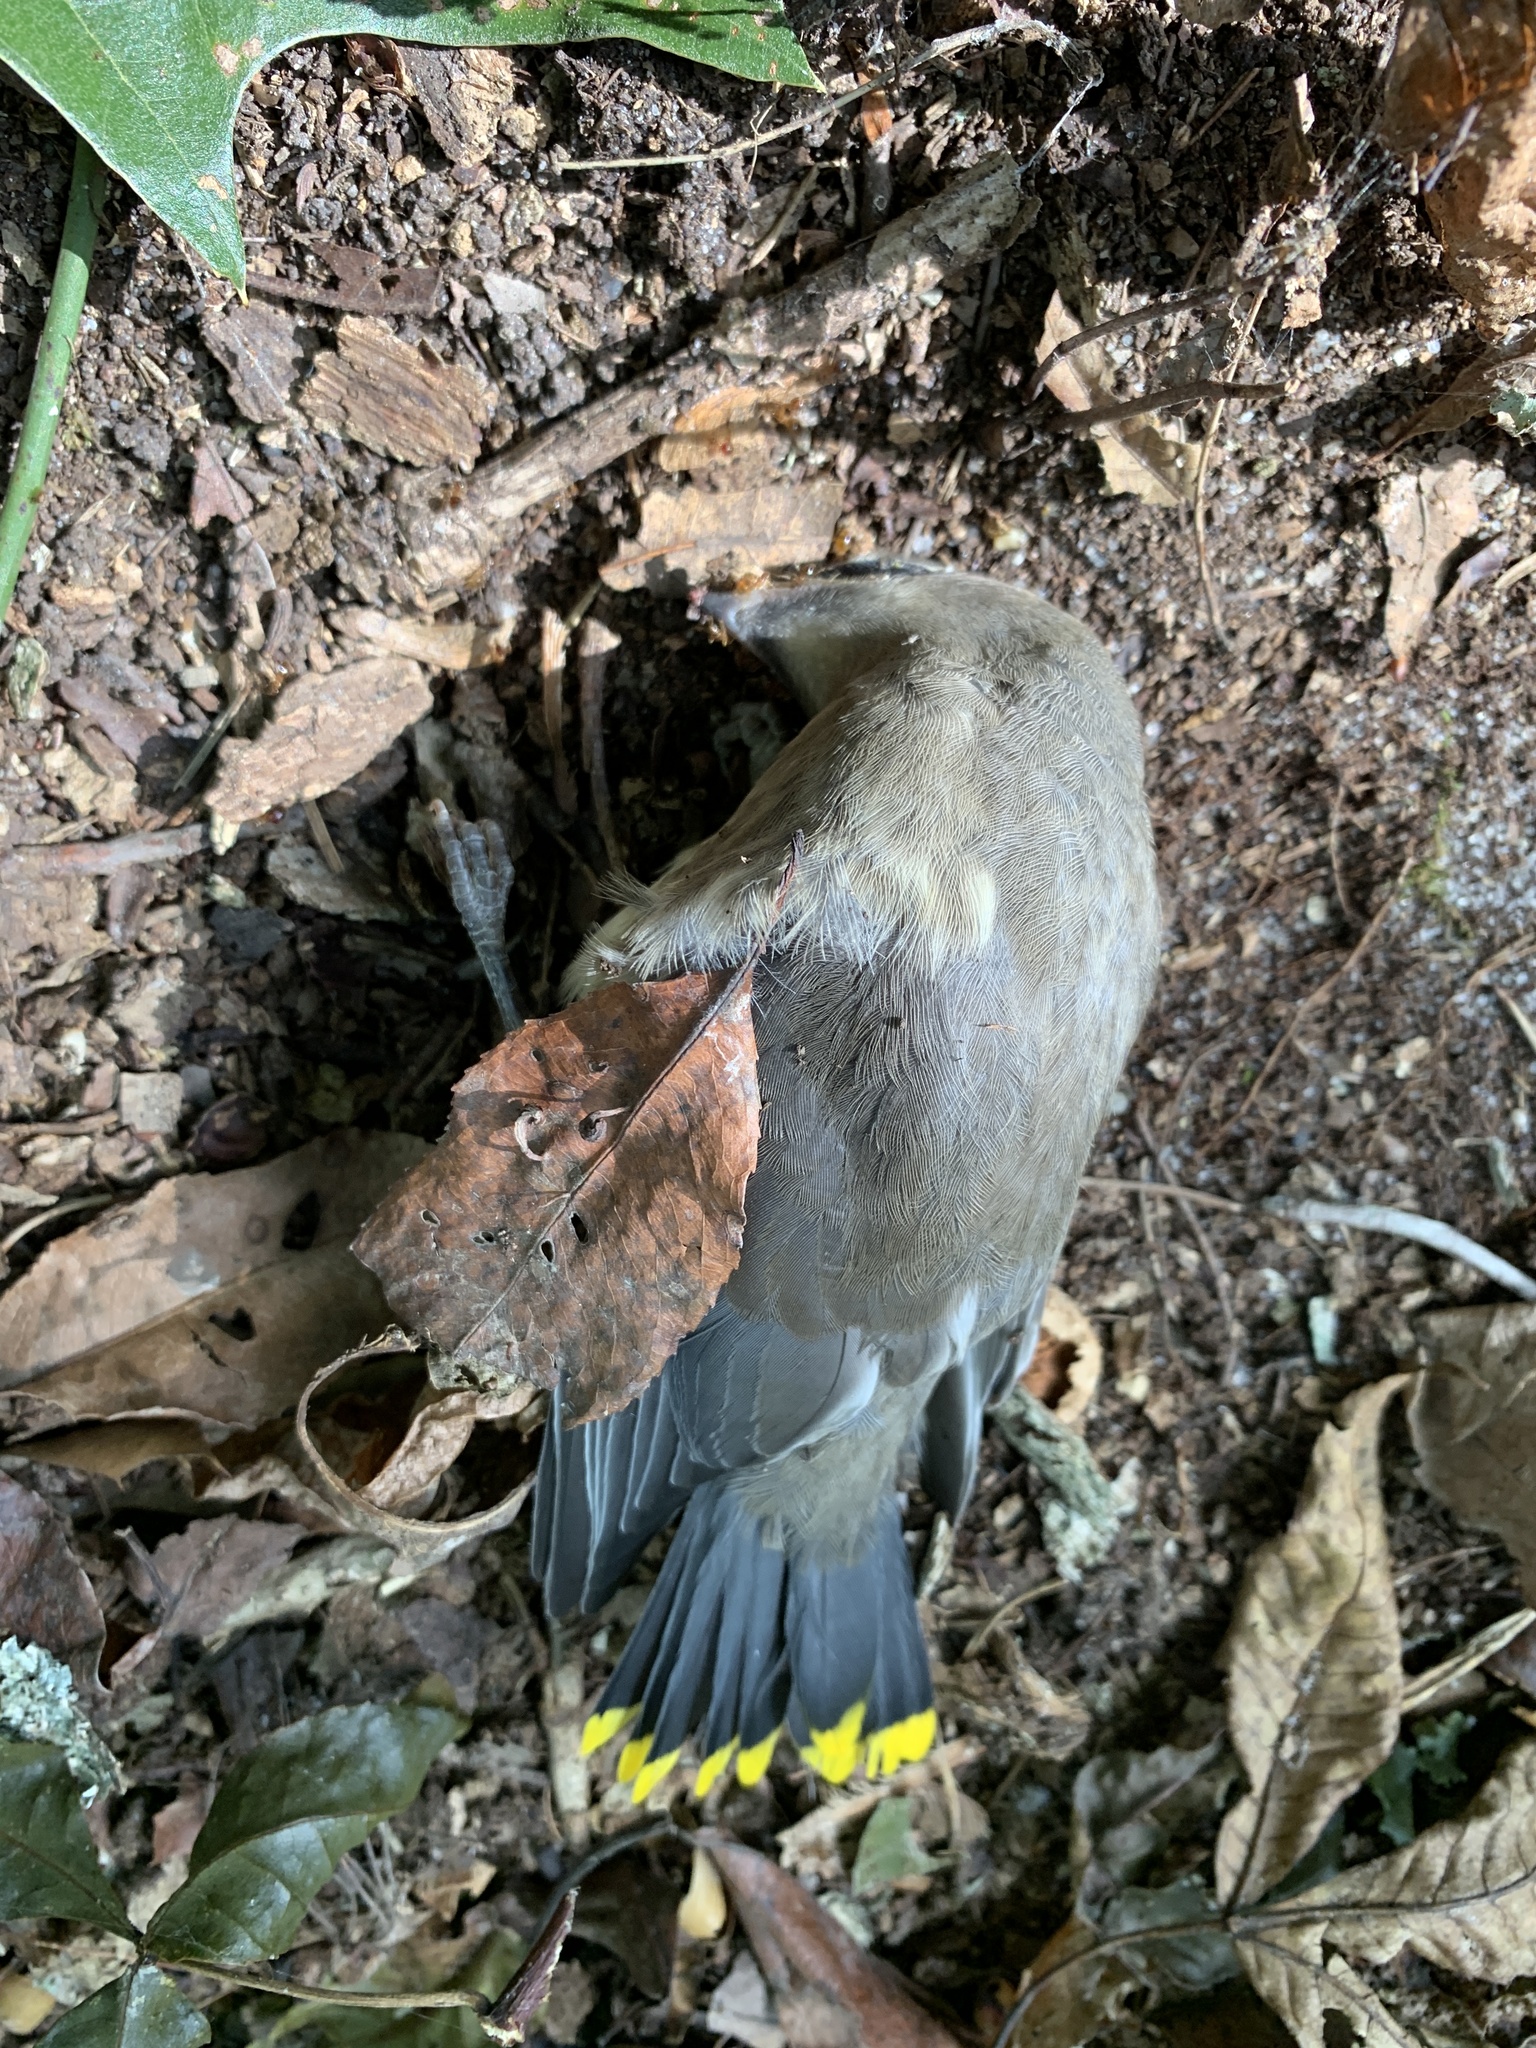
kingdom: Animalia
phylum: Chordata
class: Aves
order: Passeriformes
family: Bombycillidae
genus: Bombycilla
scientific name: Bombycilla cedrorum
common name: Cedar waxwing
